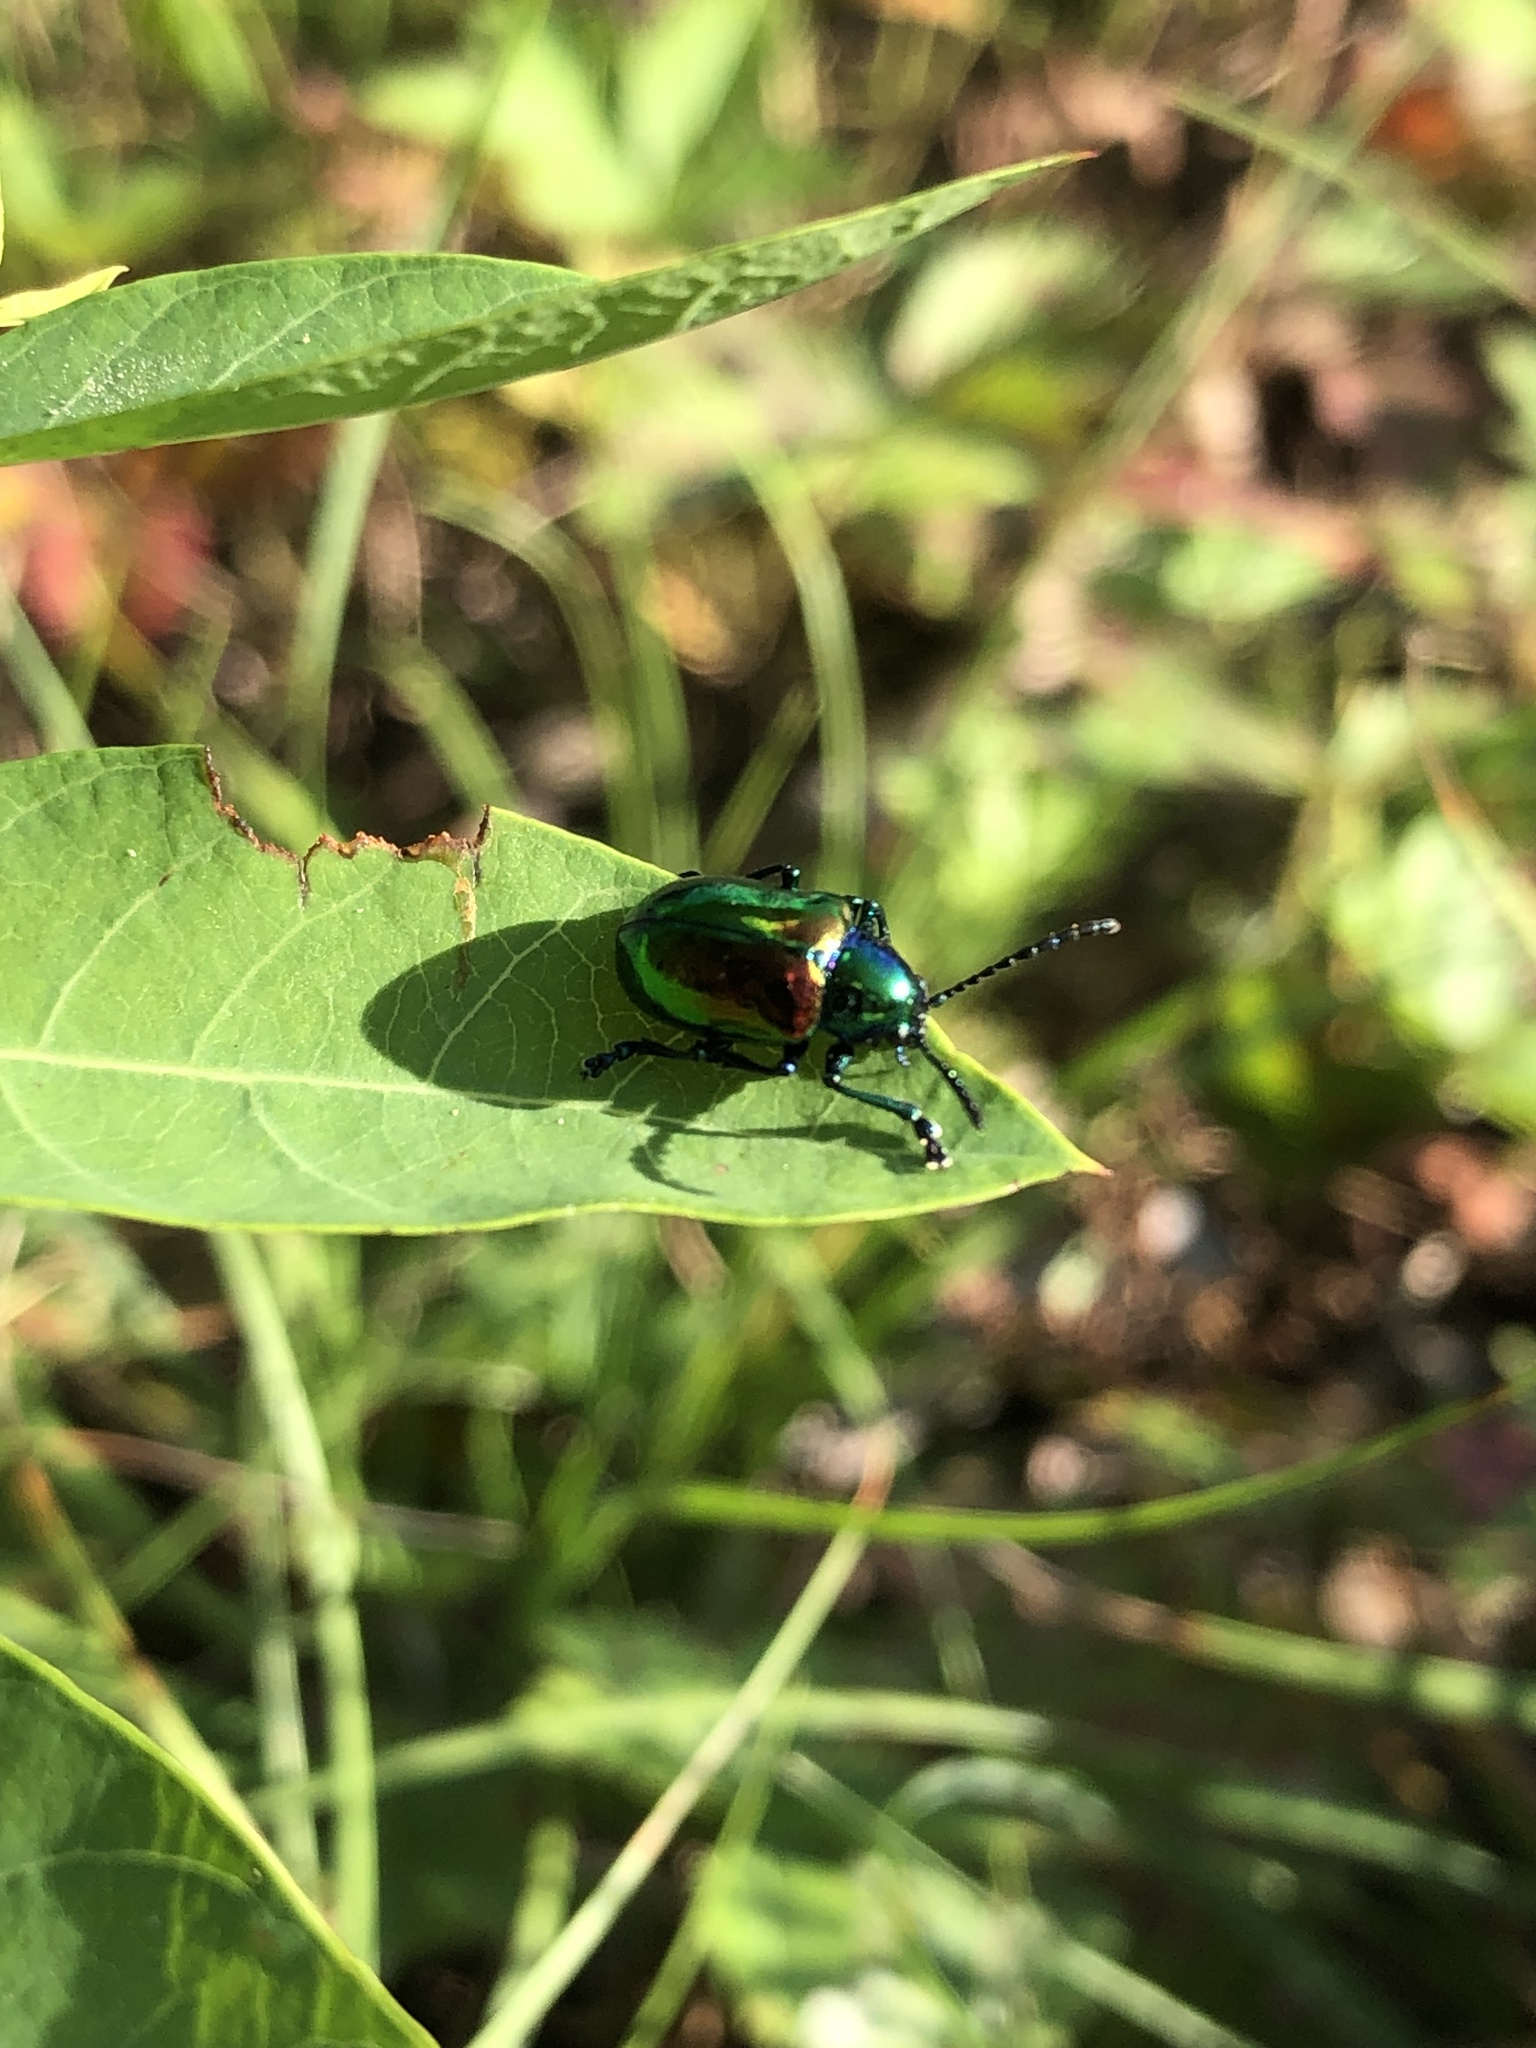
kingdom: Animalia
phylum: Arthropoda
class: Insecta
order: Coleoptera
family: Chrysomelidae
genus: Chrysochus
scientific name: Chrysochus auratus
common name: Dogbane leaf beetle
